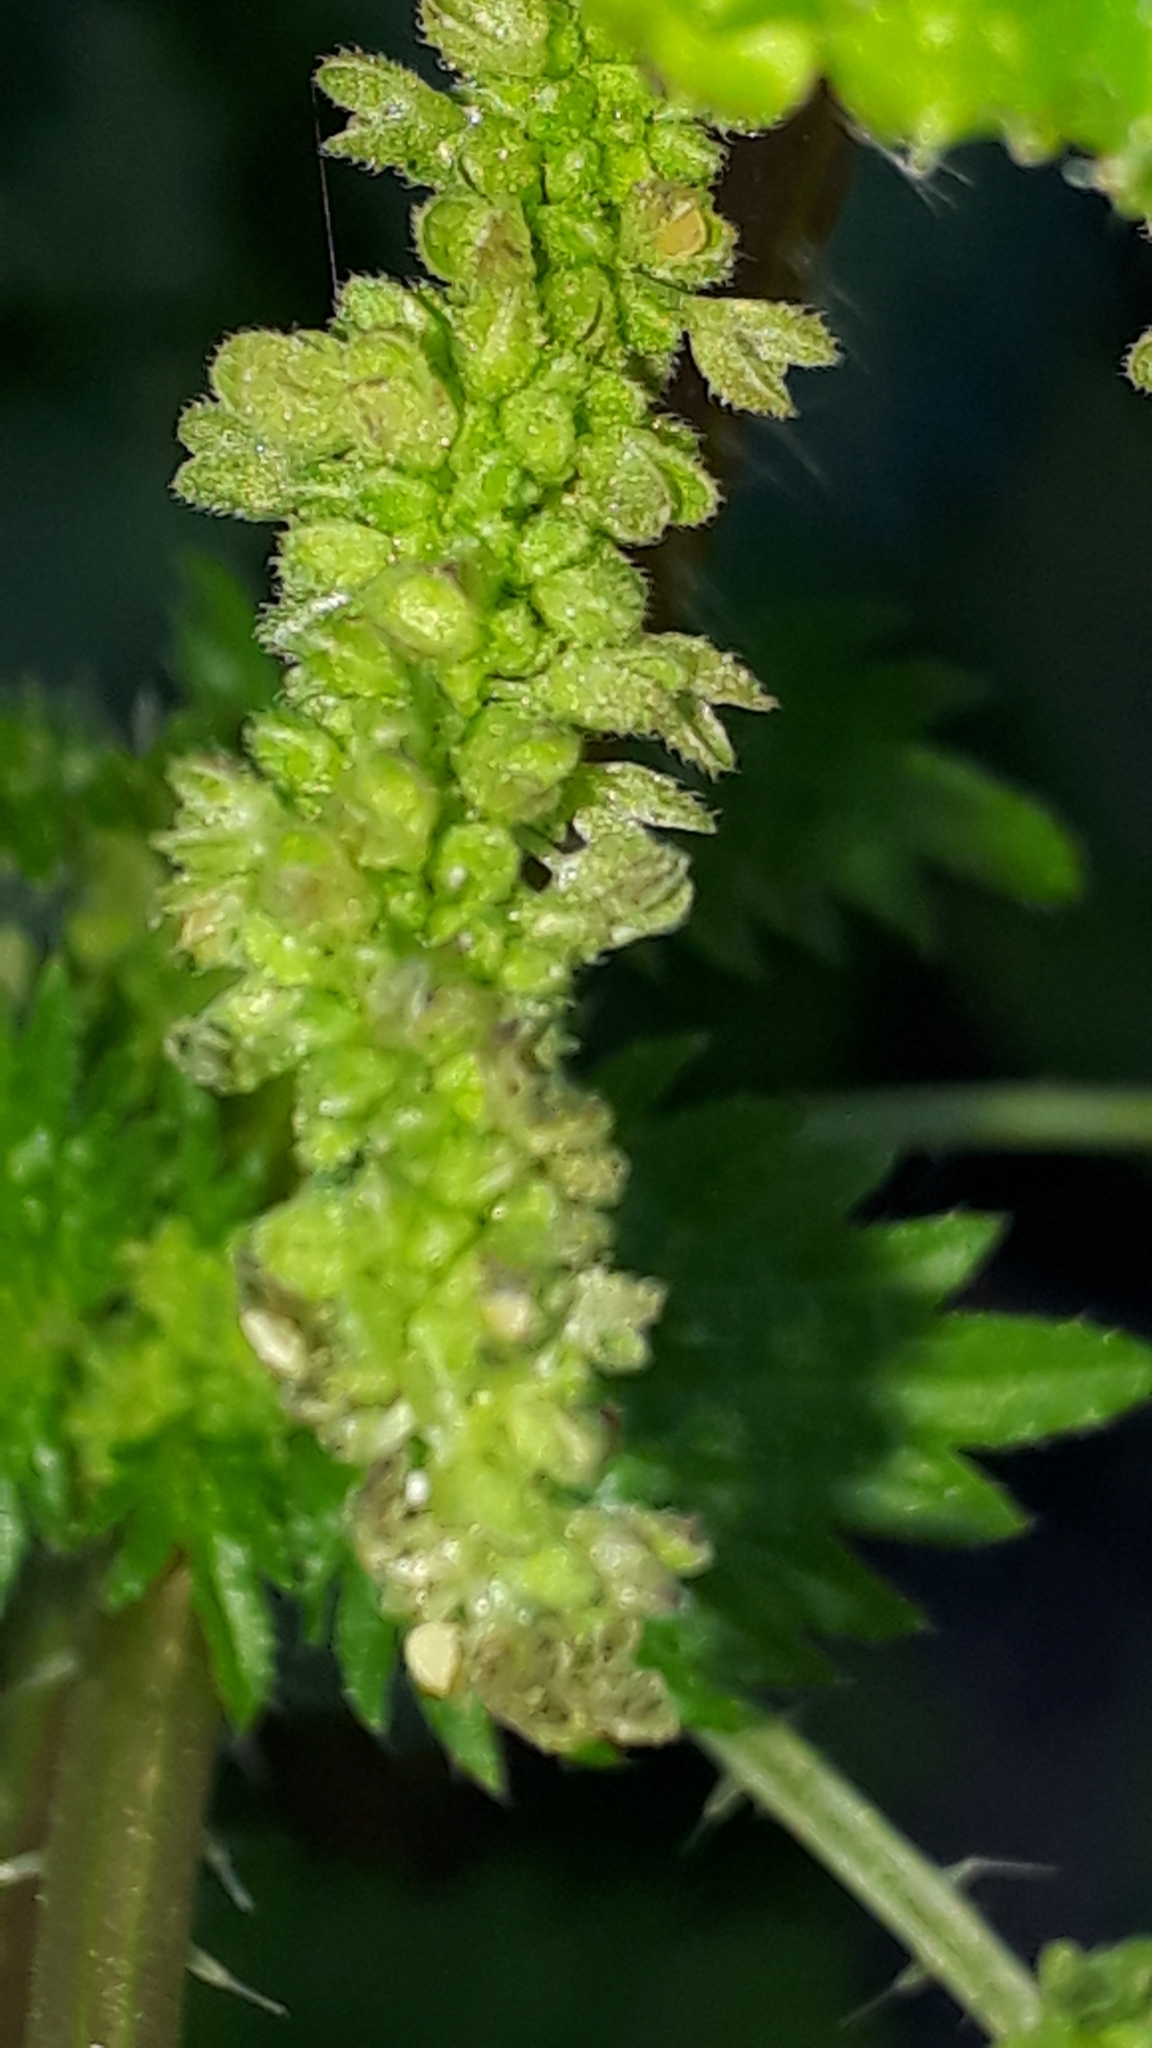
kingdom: Plantae
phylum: Tracheophyta
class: Magnoliopsida
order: Rosales
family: Urticaceae
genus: Urtica
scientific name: Urtica membranacea
